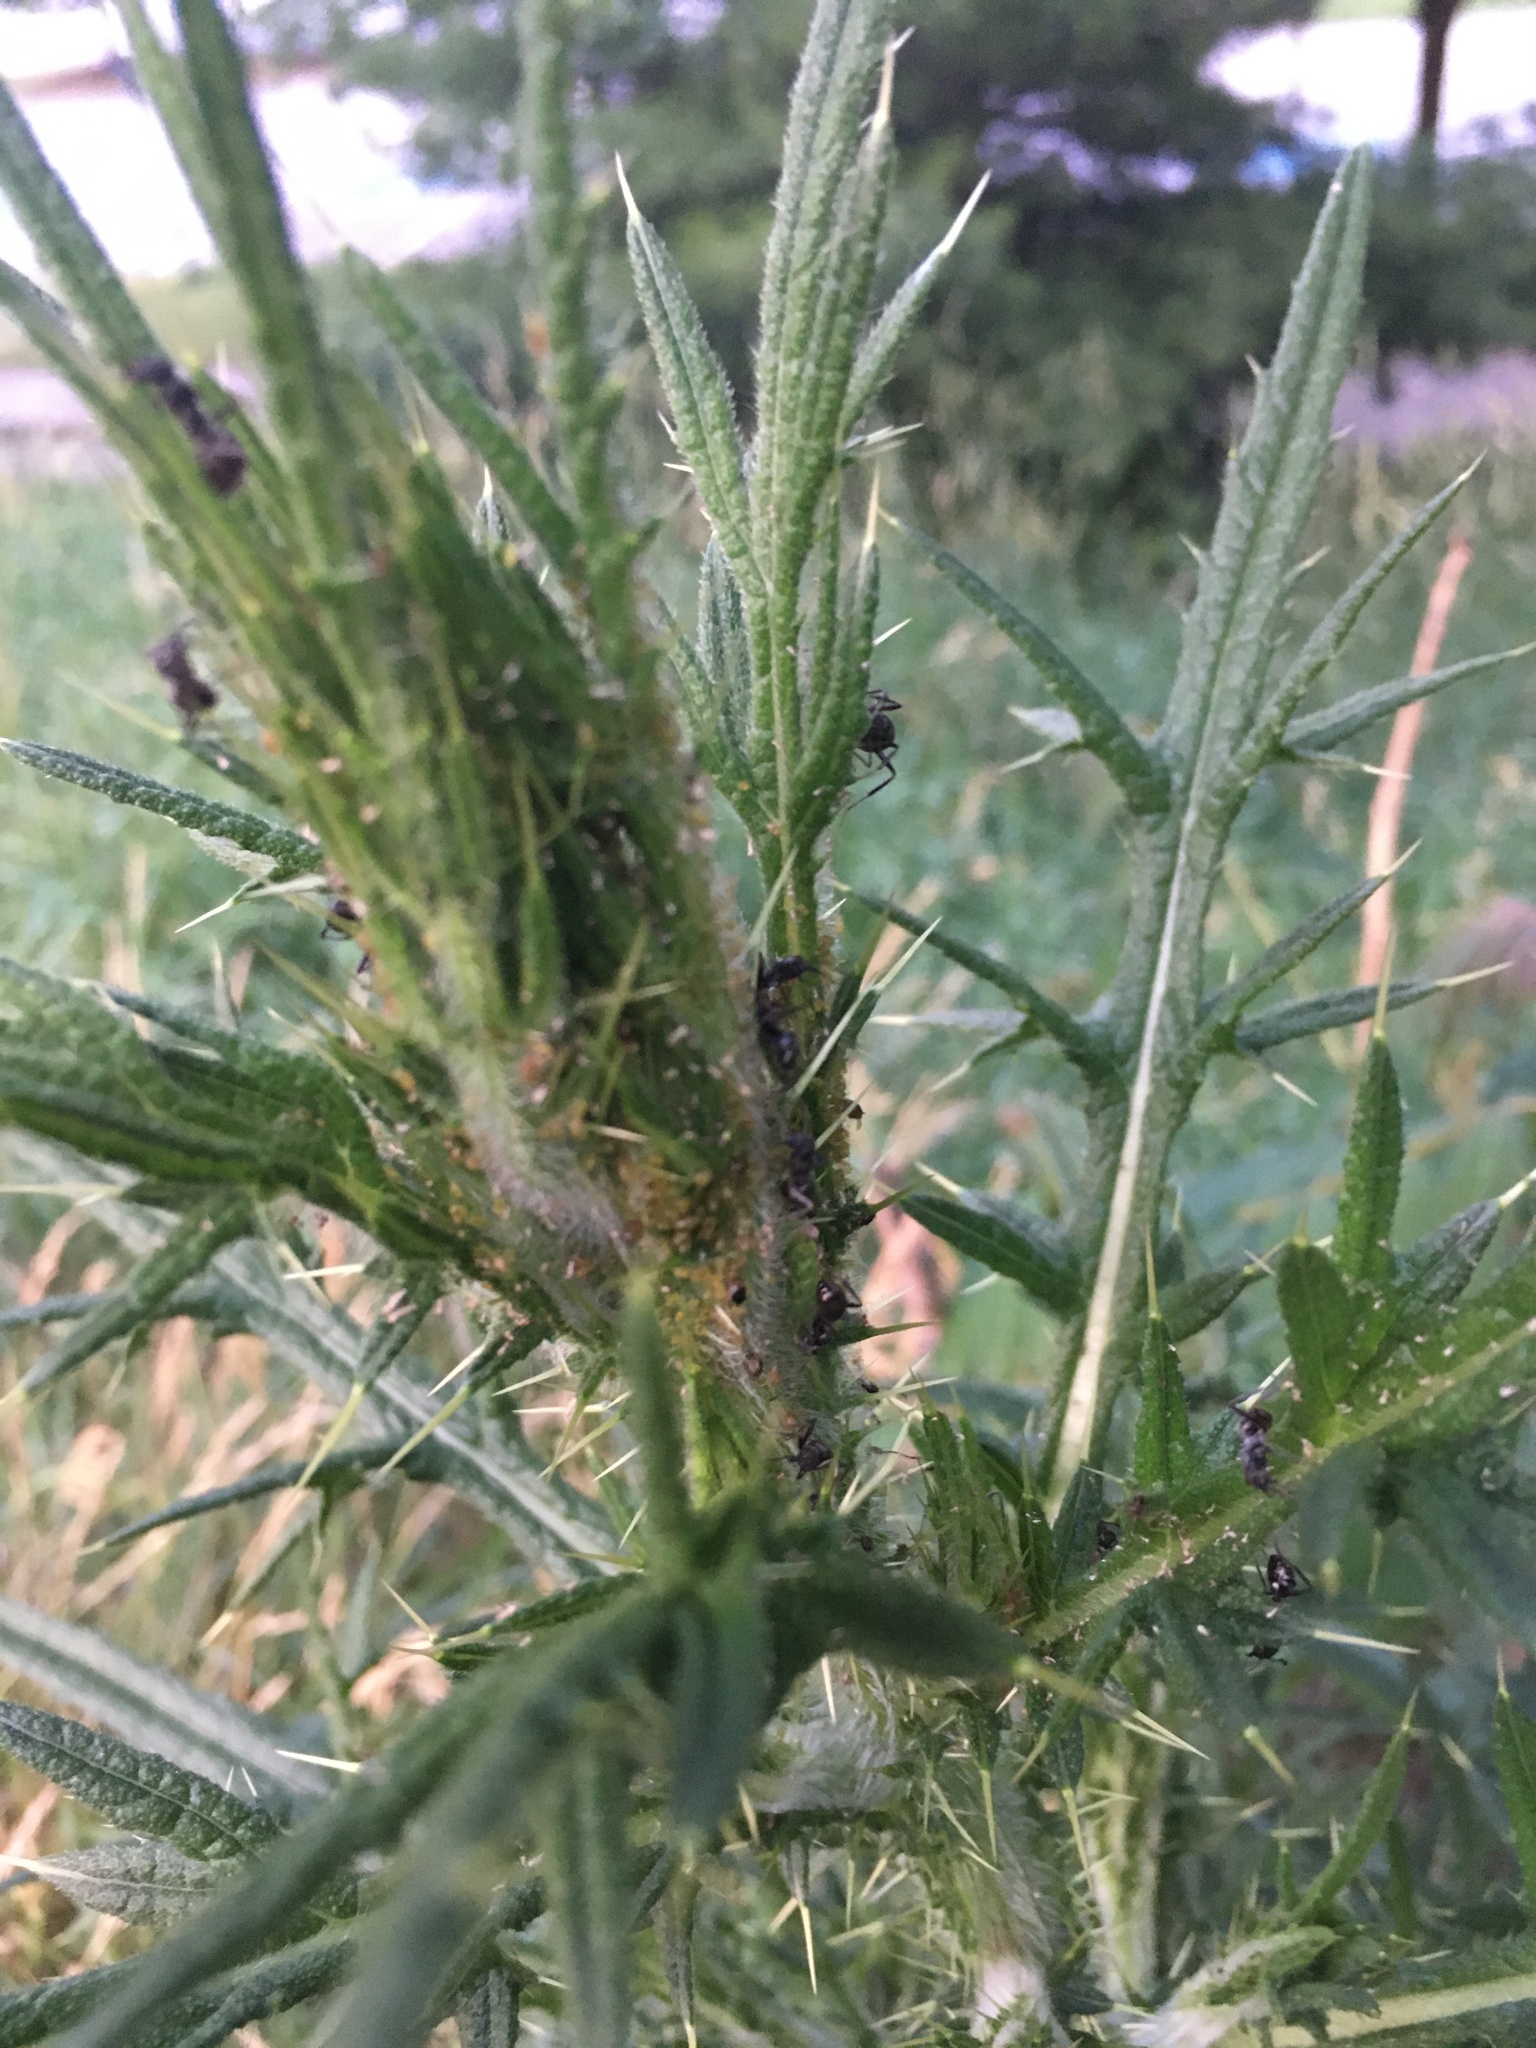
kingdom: Plantae
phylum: Tracheophyta
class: Magnoliopsida
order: Asterales
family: Asteraceae
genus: Cirsium
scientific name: Cirsium vulgare
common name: Bull thistle
